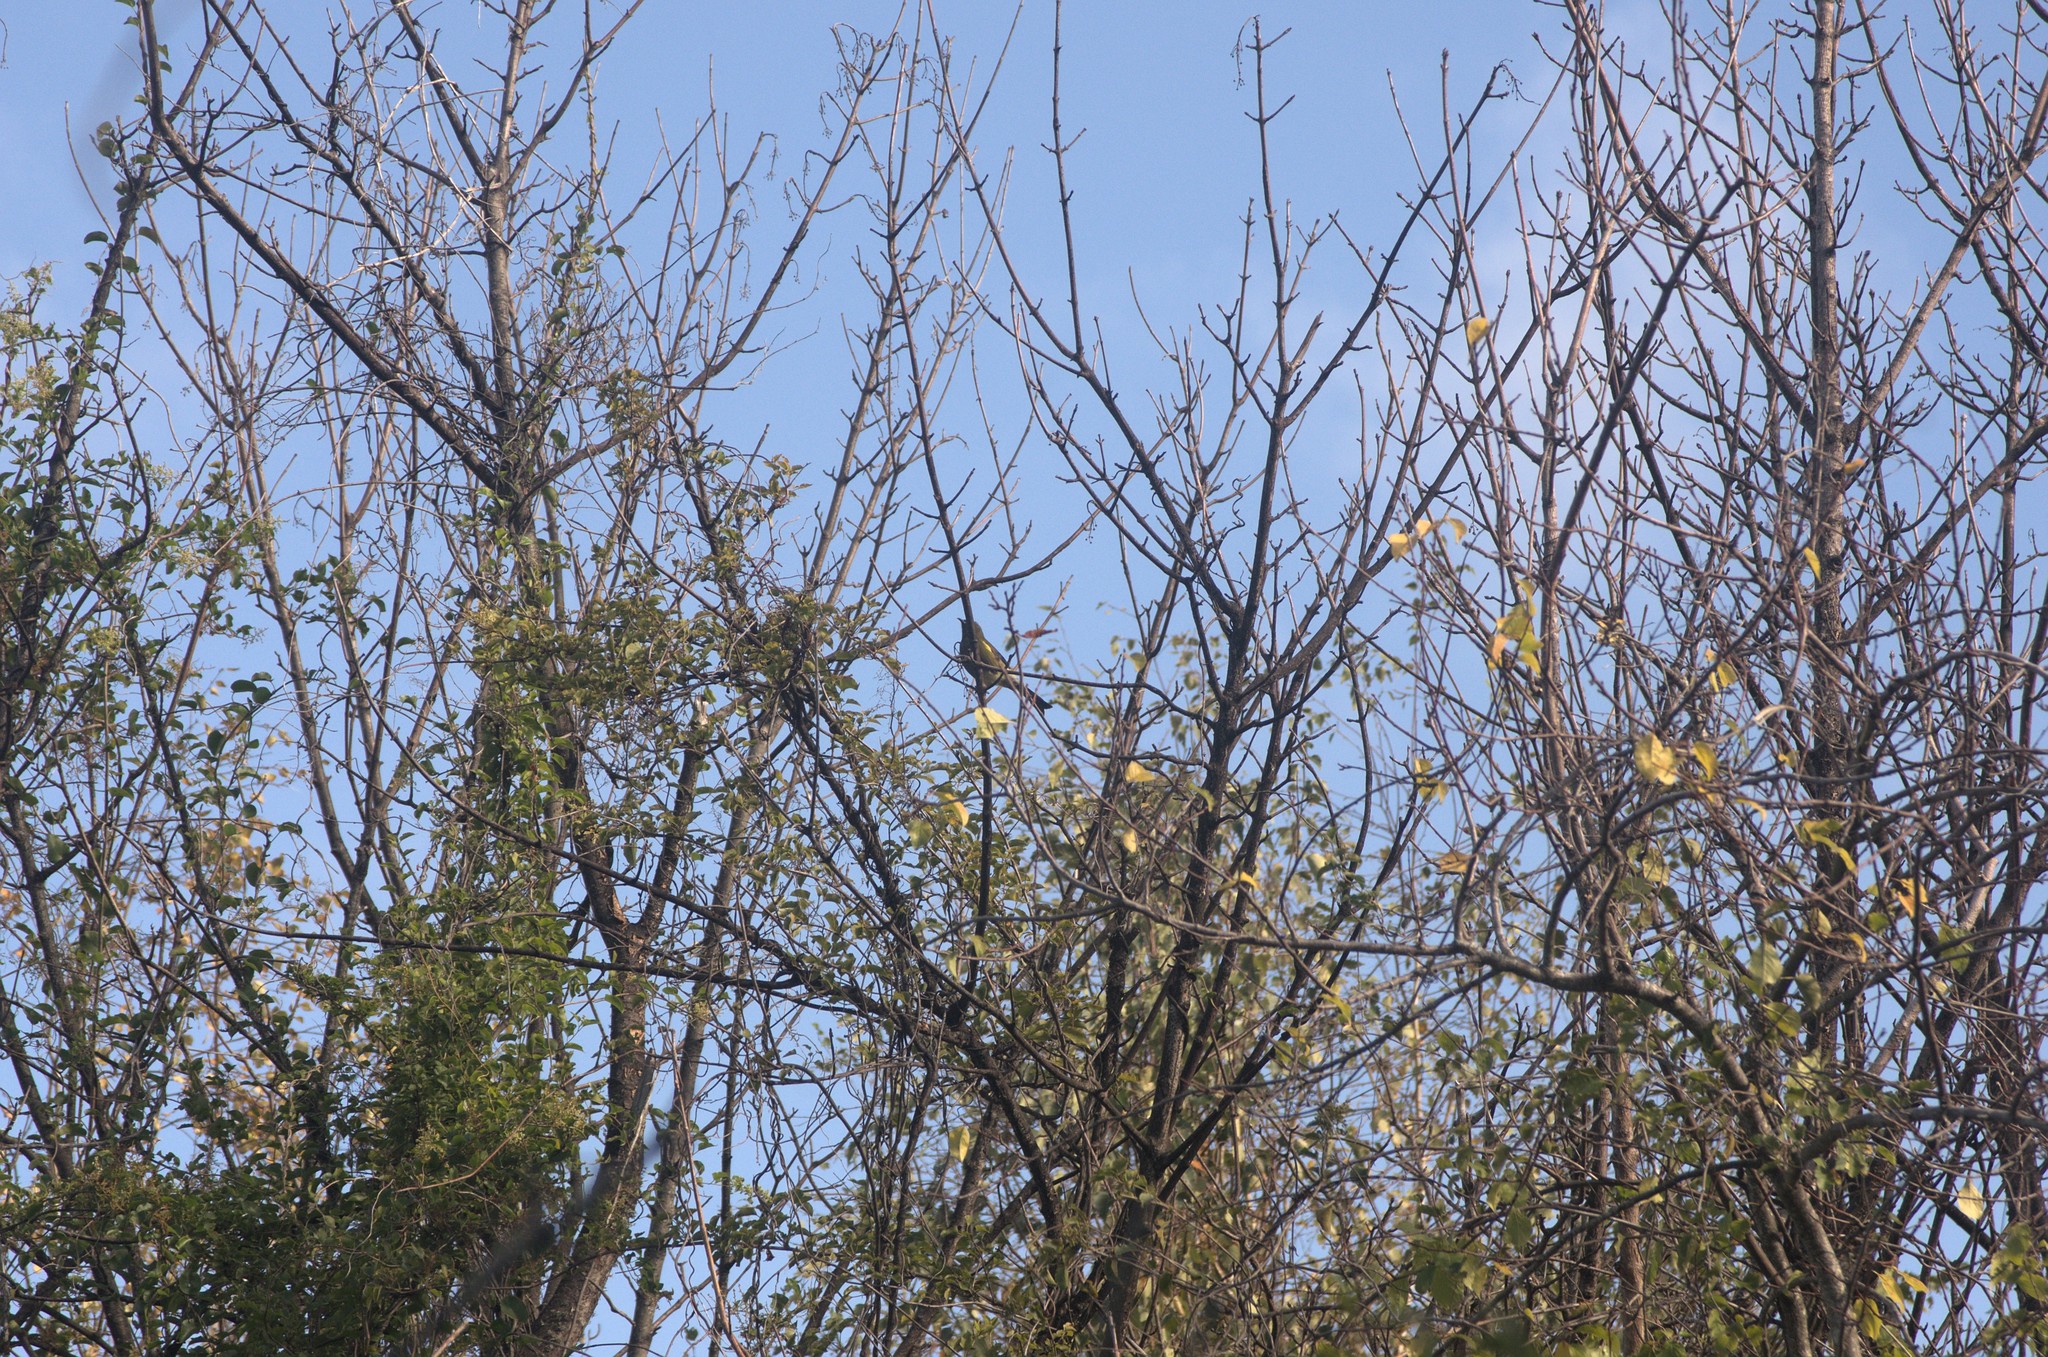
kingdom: Animalia
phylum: Chordata
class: Aves
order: Passeriformes
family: Meliphagidae
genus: Anthornis
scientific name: Anthornis melanura
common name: New zealand bellbird
